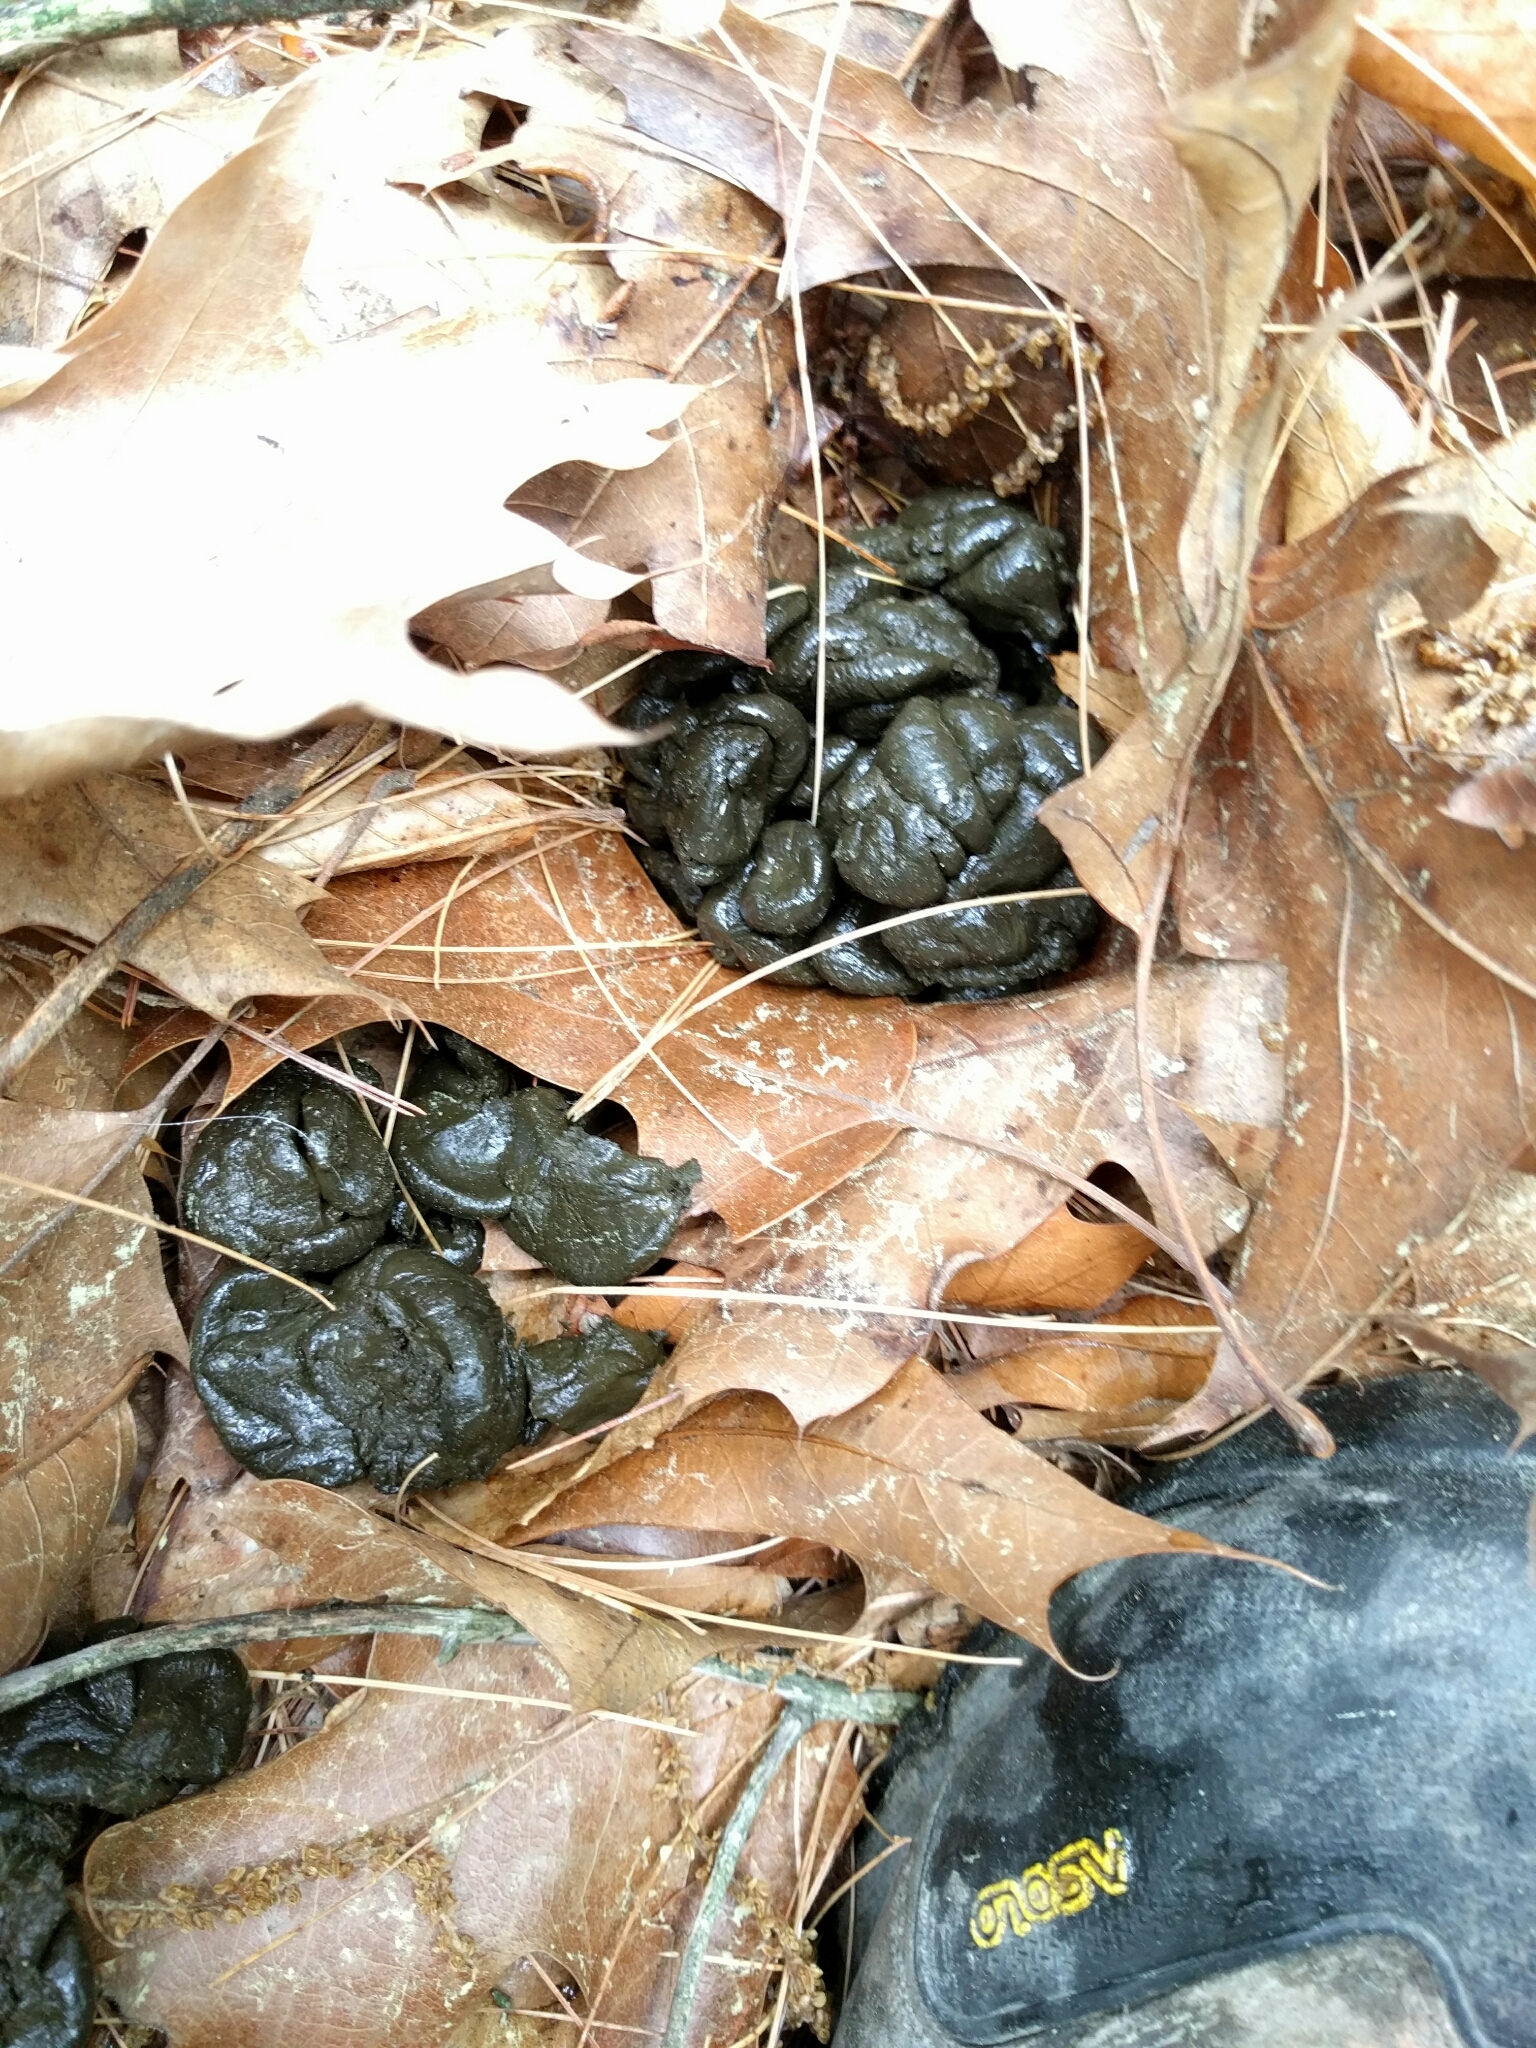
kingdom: Animalia
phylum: Chordata
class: Mammalia
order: Artiodactyla
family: Cervidae
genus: Odocoileus
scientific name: Odocoileus virginianus
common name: White-tailed deer
